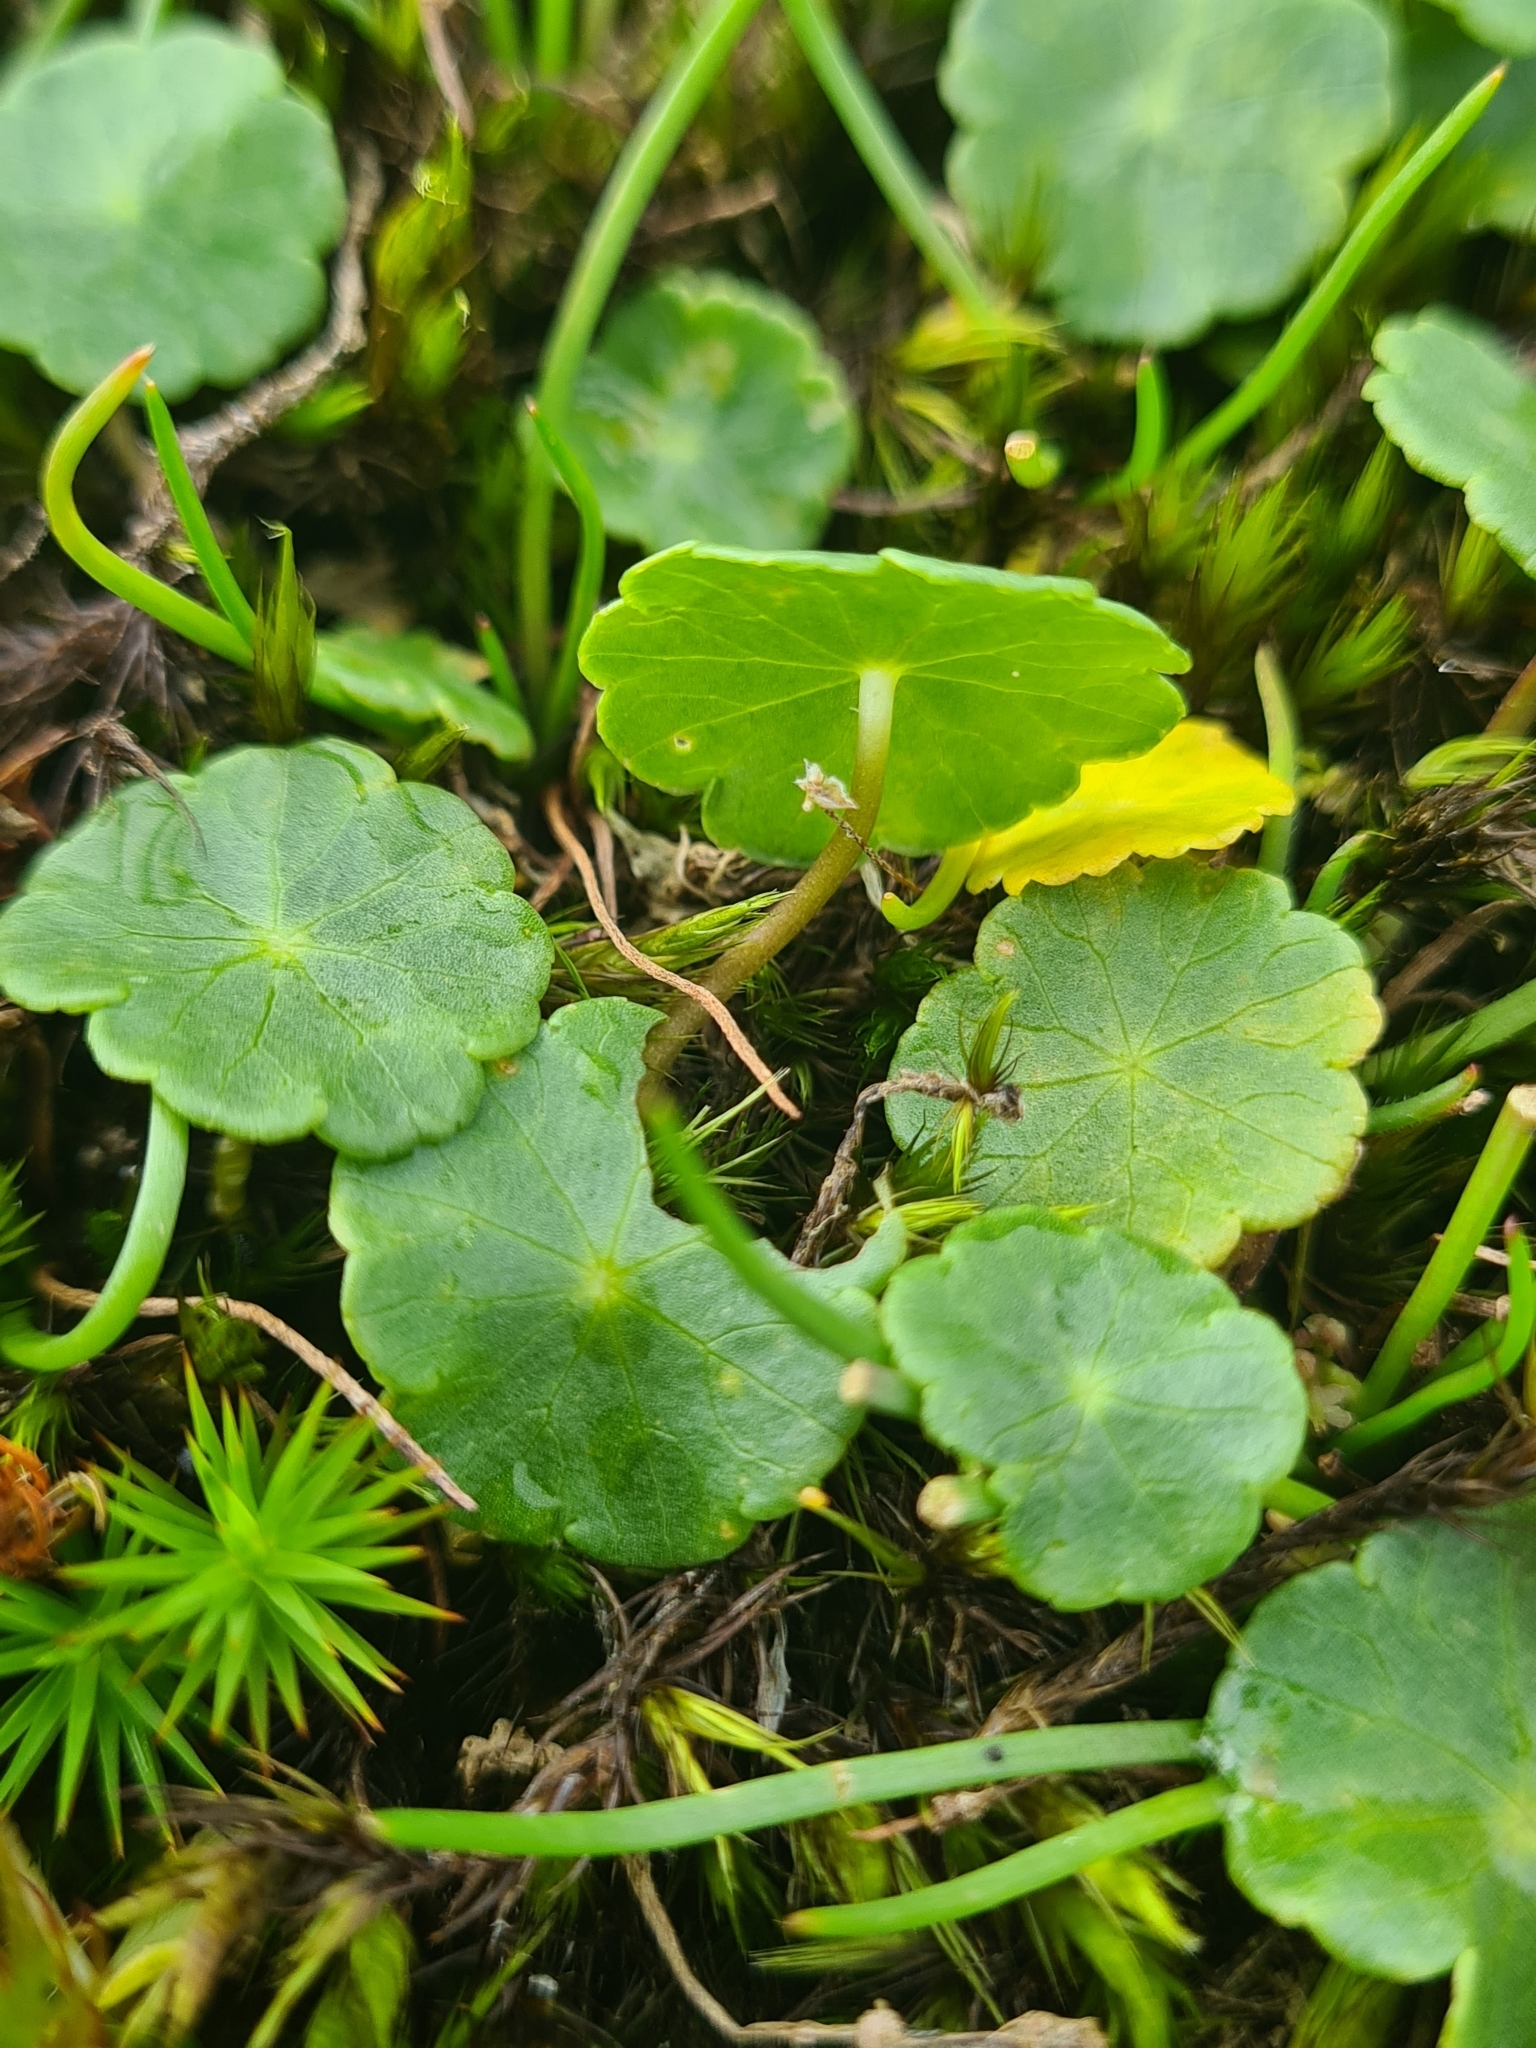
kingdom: Plantae
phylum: Tracheophyta
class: Magnoliopsida
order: Apiales
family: Araliaceae
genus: Hydrocotyle
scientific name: Hydrocotyle vulgaris
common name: Marsh pennywort
